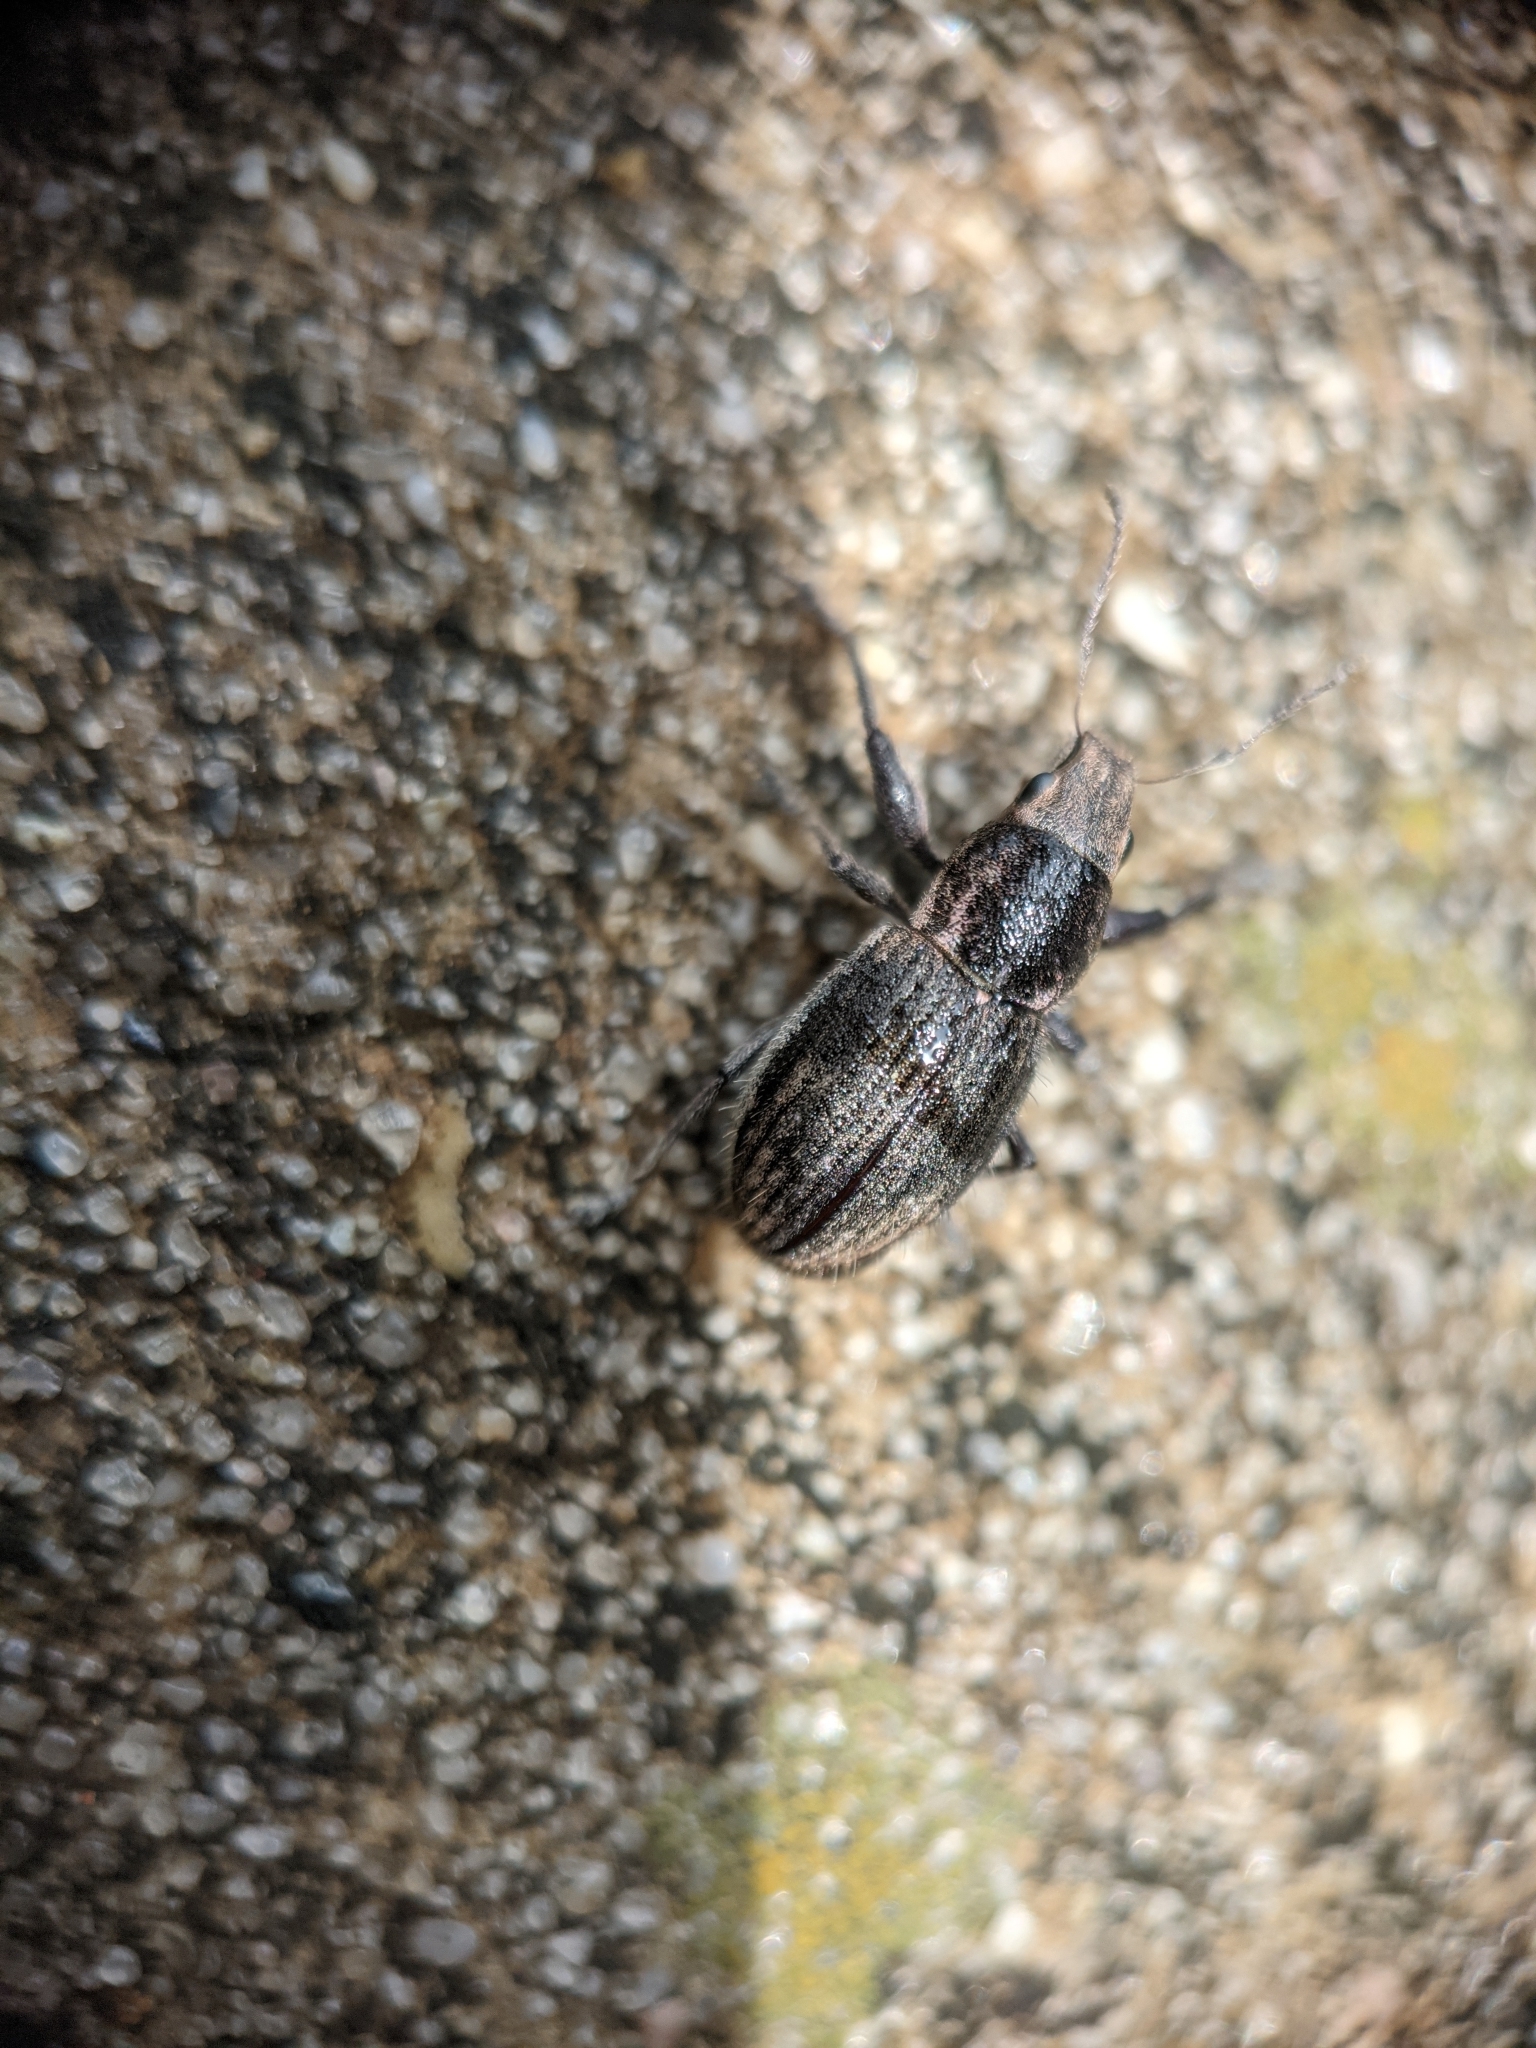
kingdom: Animalia
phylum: Arthropoda
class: Insecta
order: Coleoptera
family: Curculionidae
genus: Naupactus
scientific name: Naupactus leucoloma
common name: Whitefringed beetle
